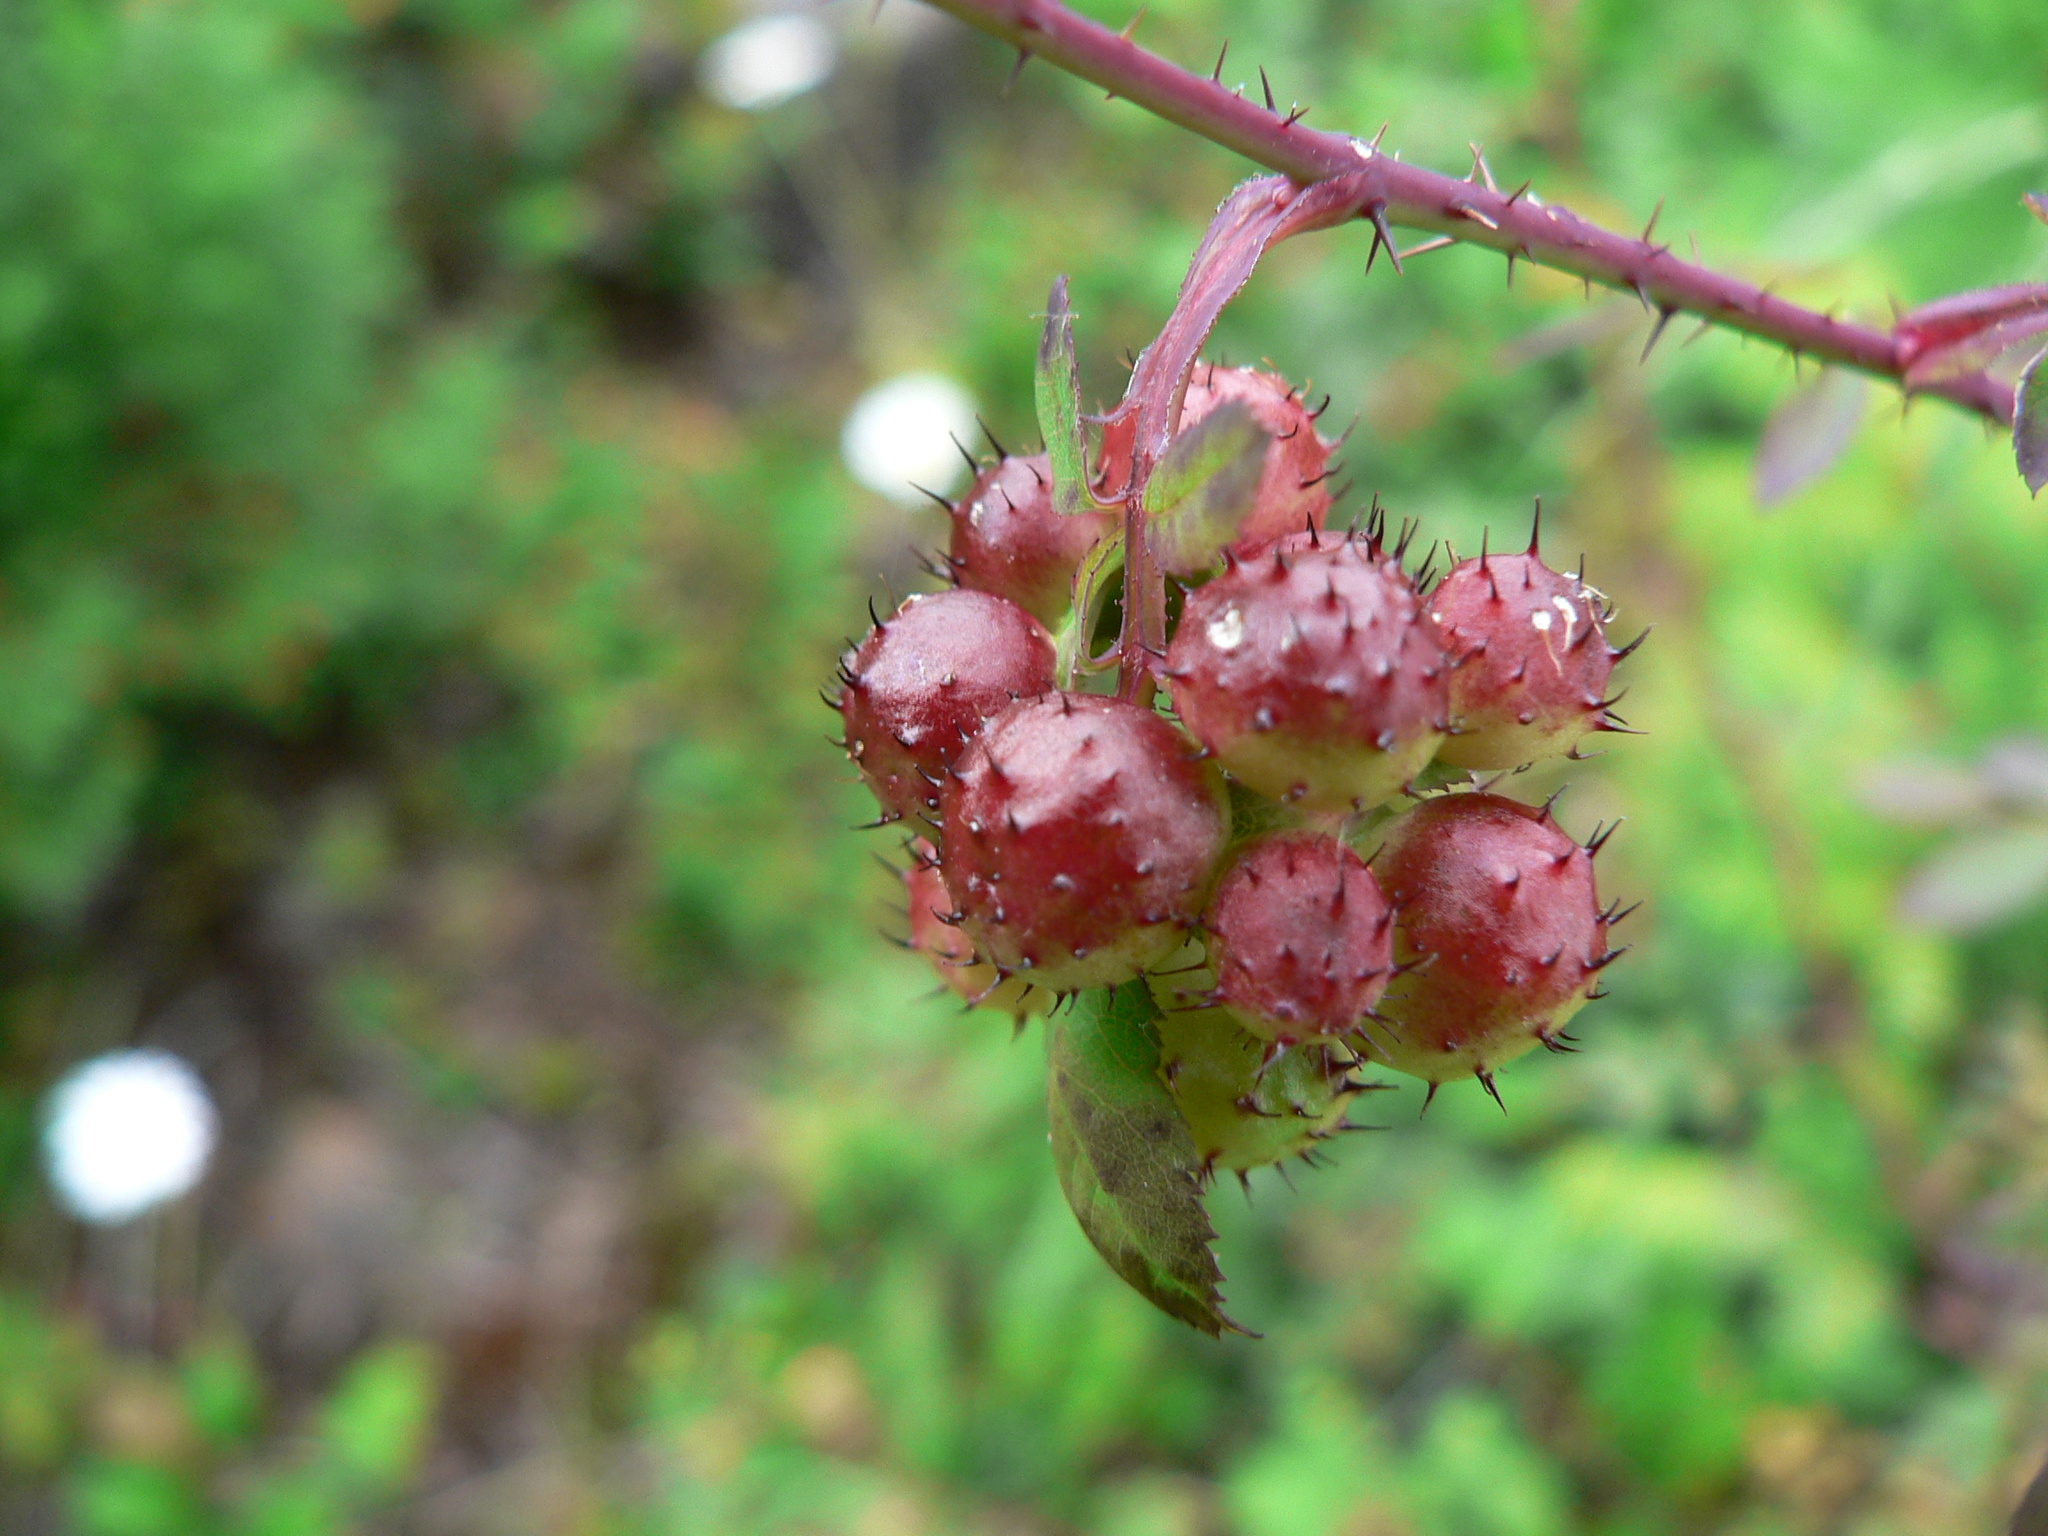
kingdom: Animalia
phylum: Arthropoda
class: Insecta
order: Hymenoptera
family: Cynipidae
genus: Diplolepis
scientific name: Diplolepis polita
